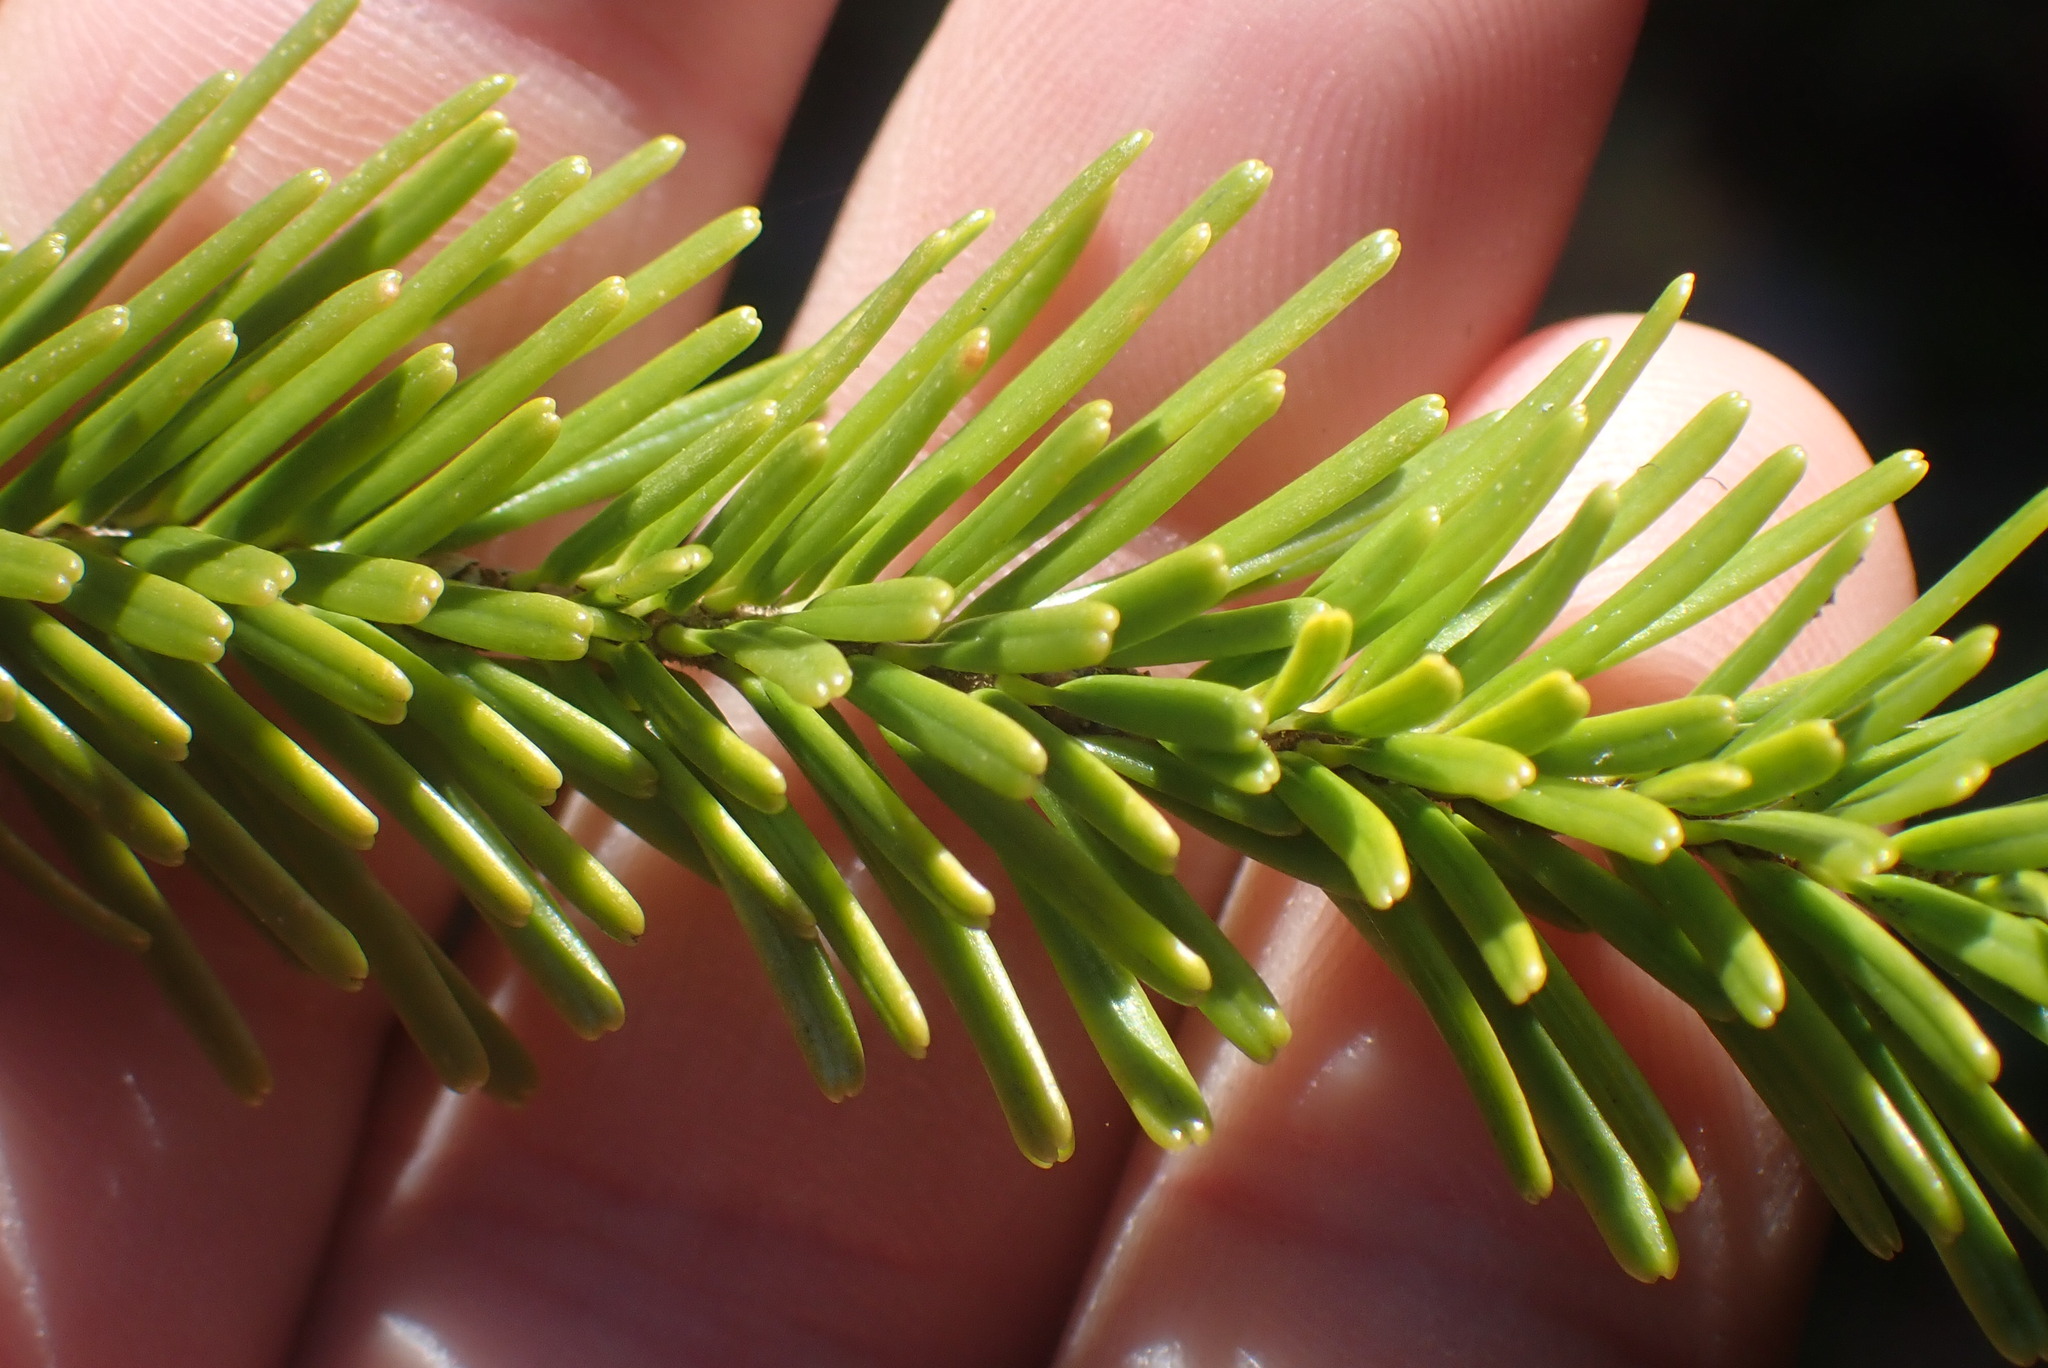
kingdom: Plantae
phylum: Tracheophyta
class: Pinopsida
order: Pinales
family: Pinaceae
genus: Abies
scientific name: Abies amabilis
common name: Pacific silver fir
